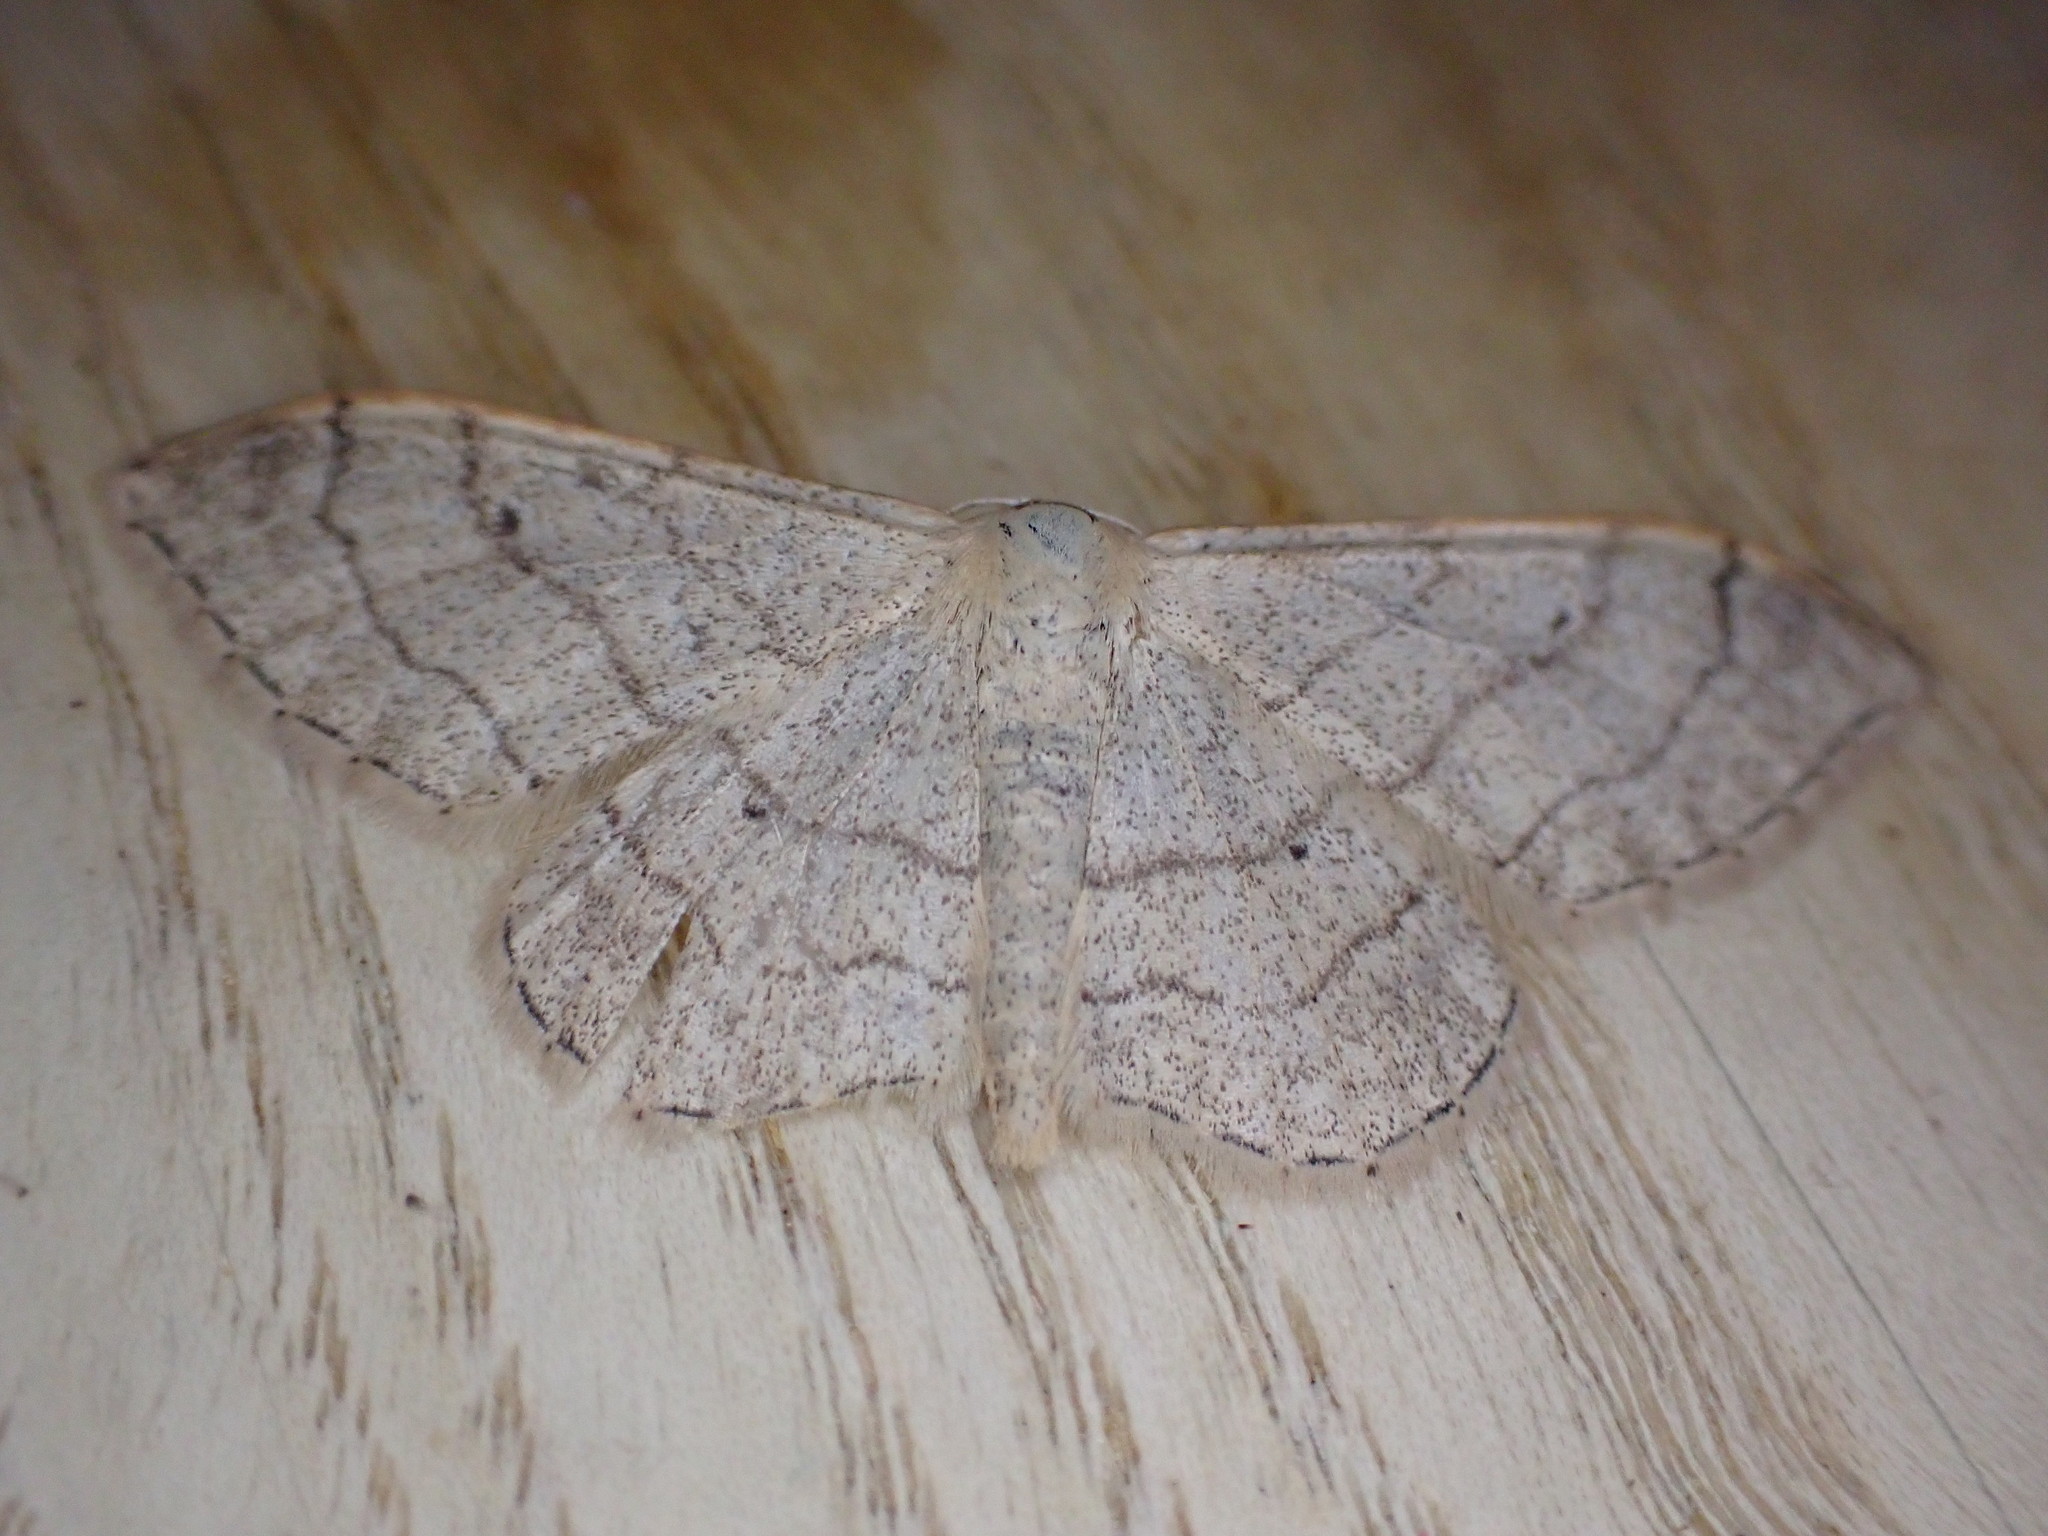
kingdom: Animalia
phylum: Arthropoda
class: Insecta
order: Lepidoptera
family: Geometridae
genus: Idaea
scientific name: Idaea aversata
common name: Riband wave
